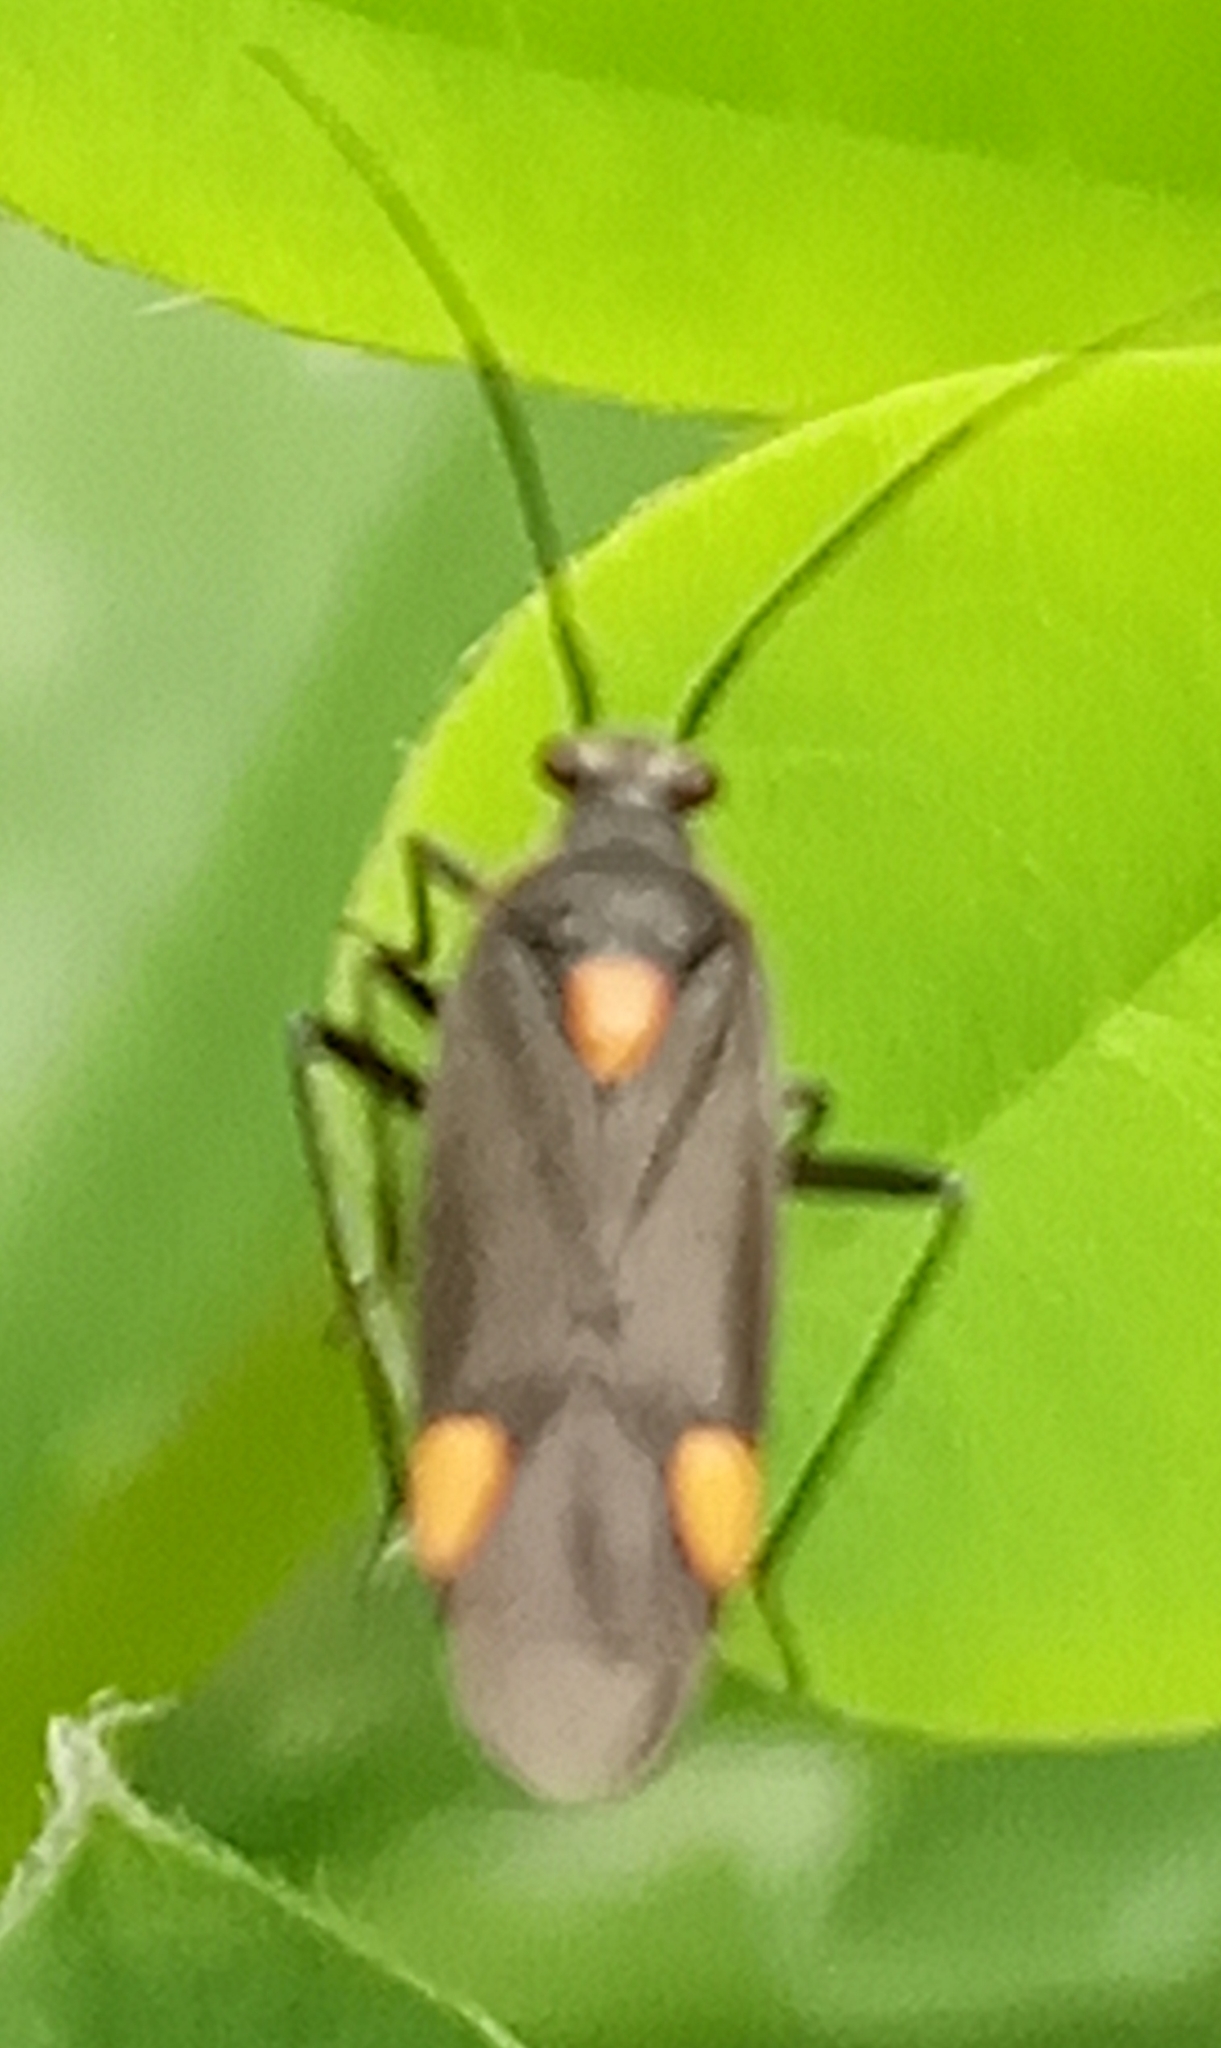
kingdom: Animalia
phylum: Arthropoda
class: Insecta
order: Hemiptera
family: Miridae
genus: Capsodes
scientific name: Capsodes flavomarginatus
